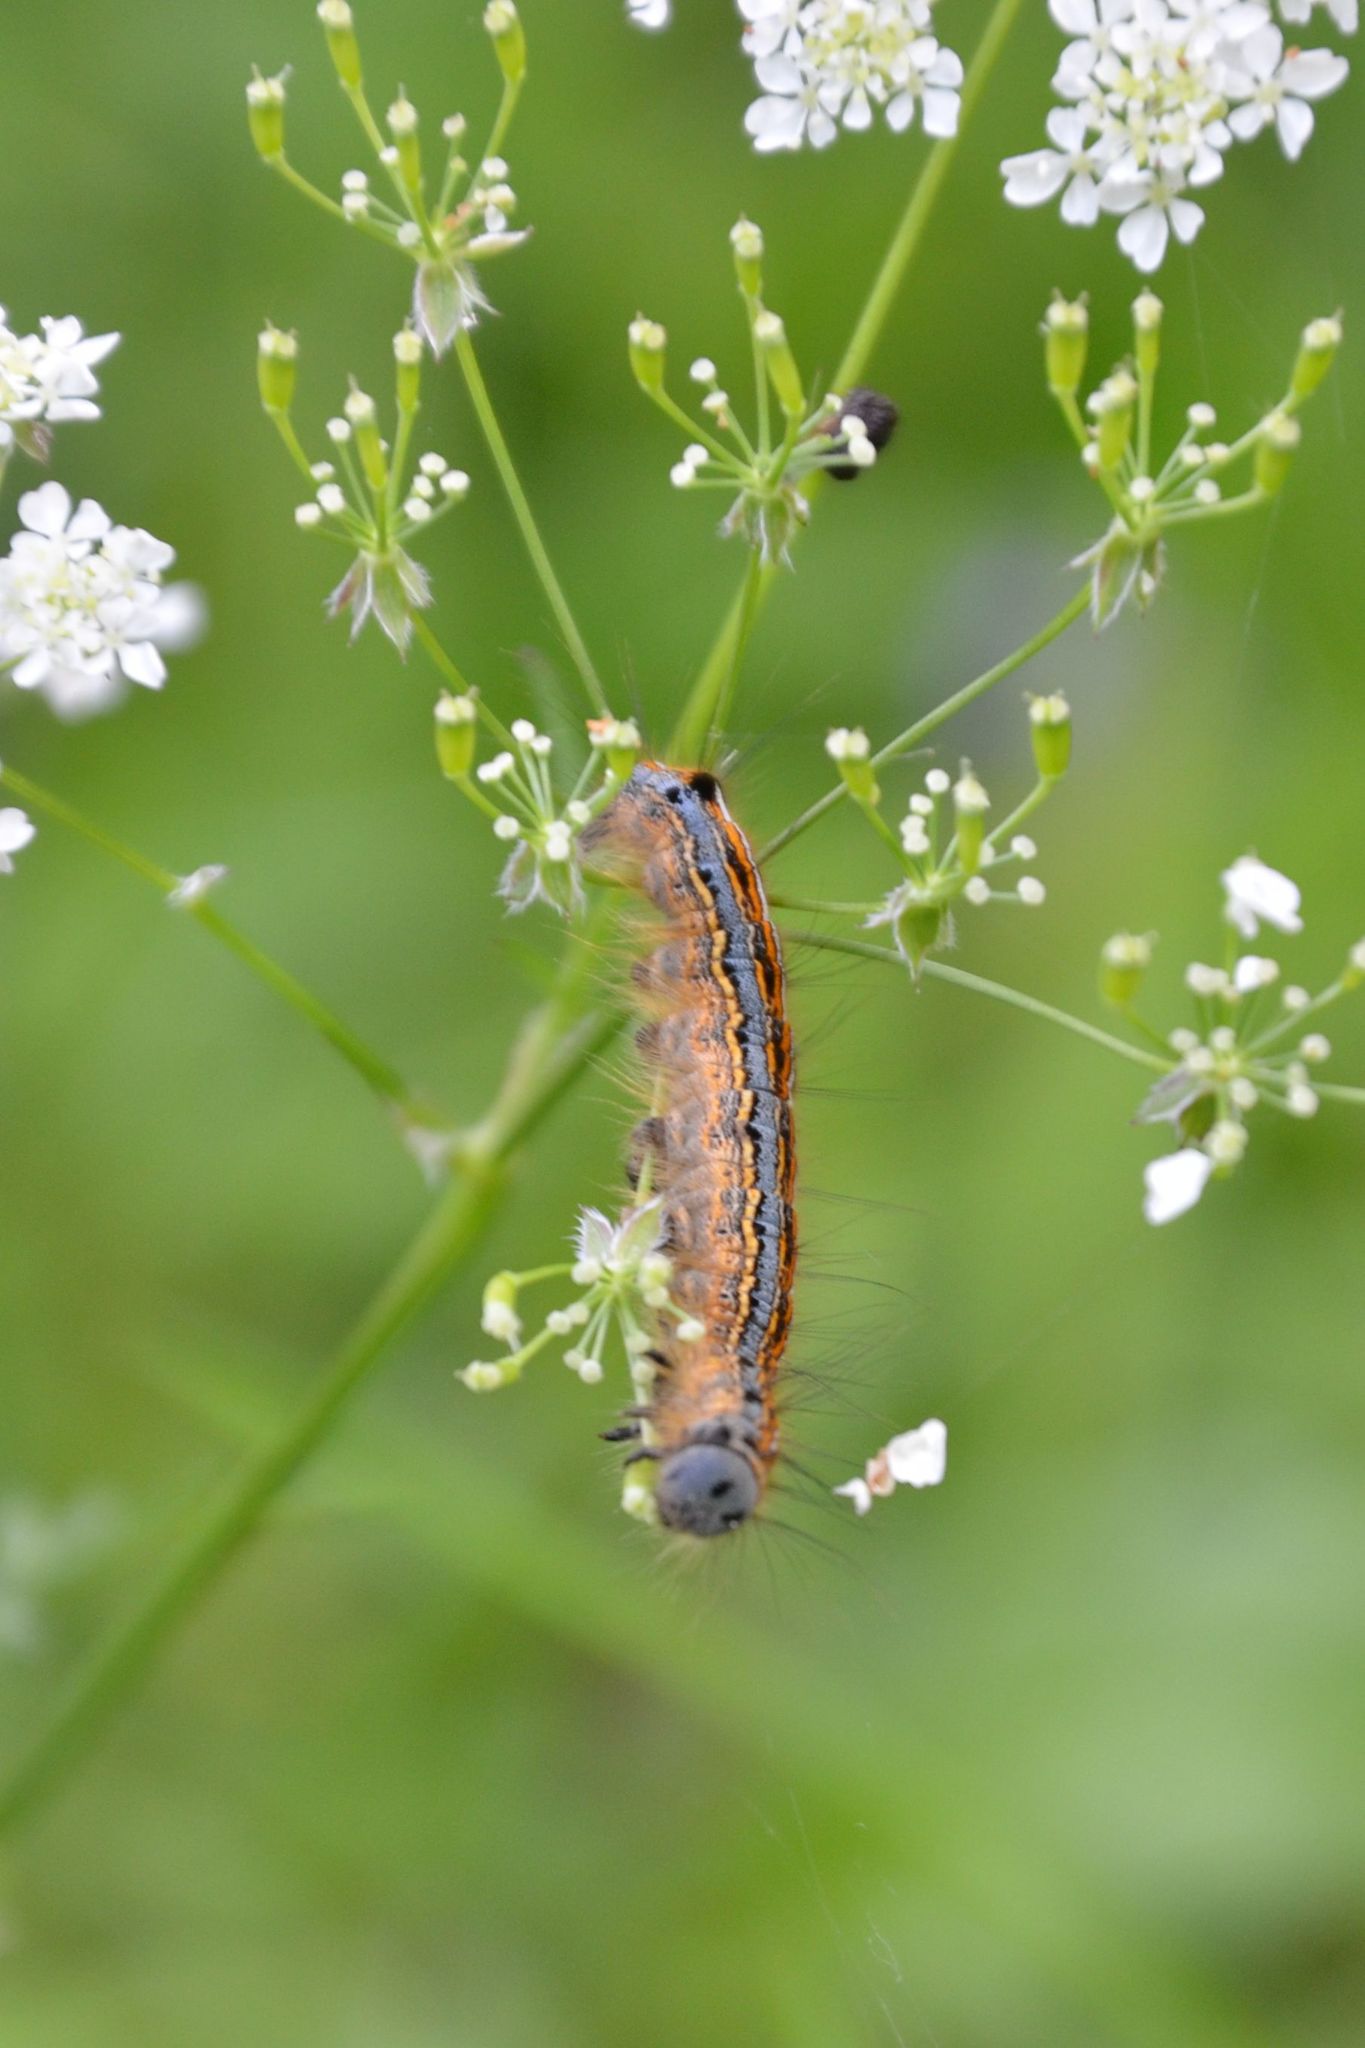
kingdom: Animalia
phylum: Arthropoda
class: Insecta
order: Lepidoptera
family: Lasiocampidae
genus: Malacosoma
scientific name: Malacosoma neustria
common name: The lackey
